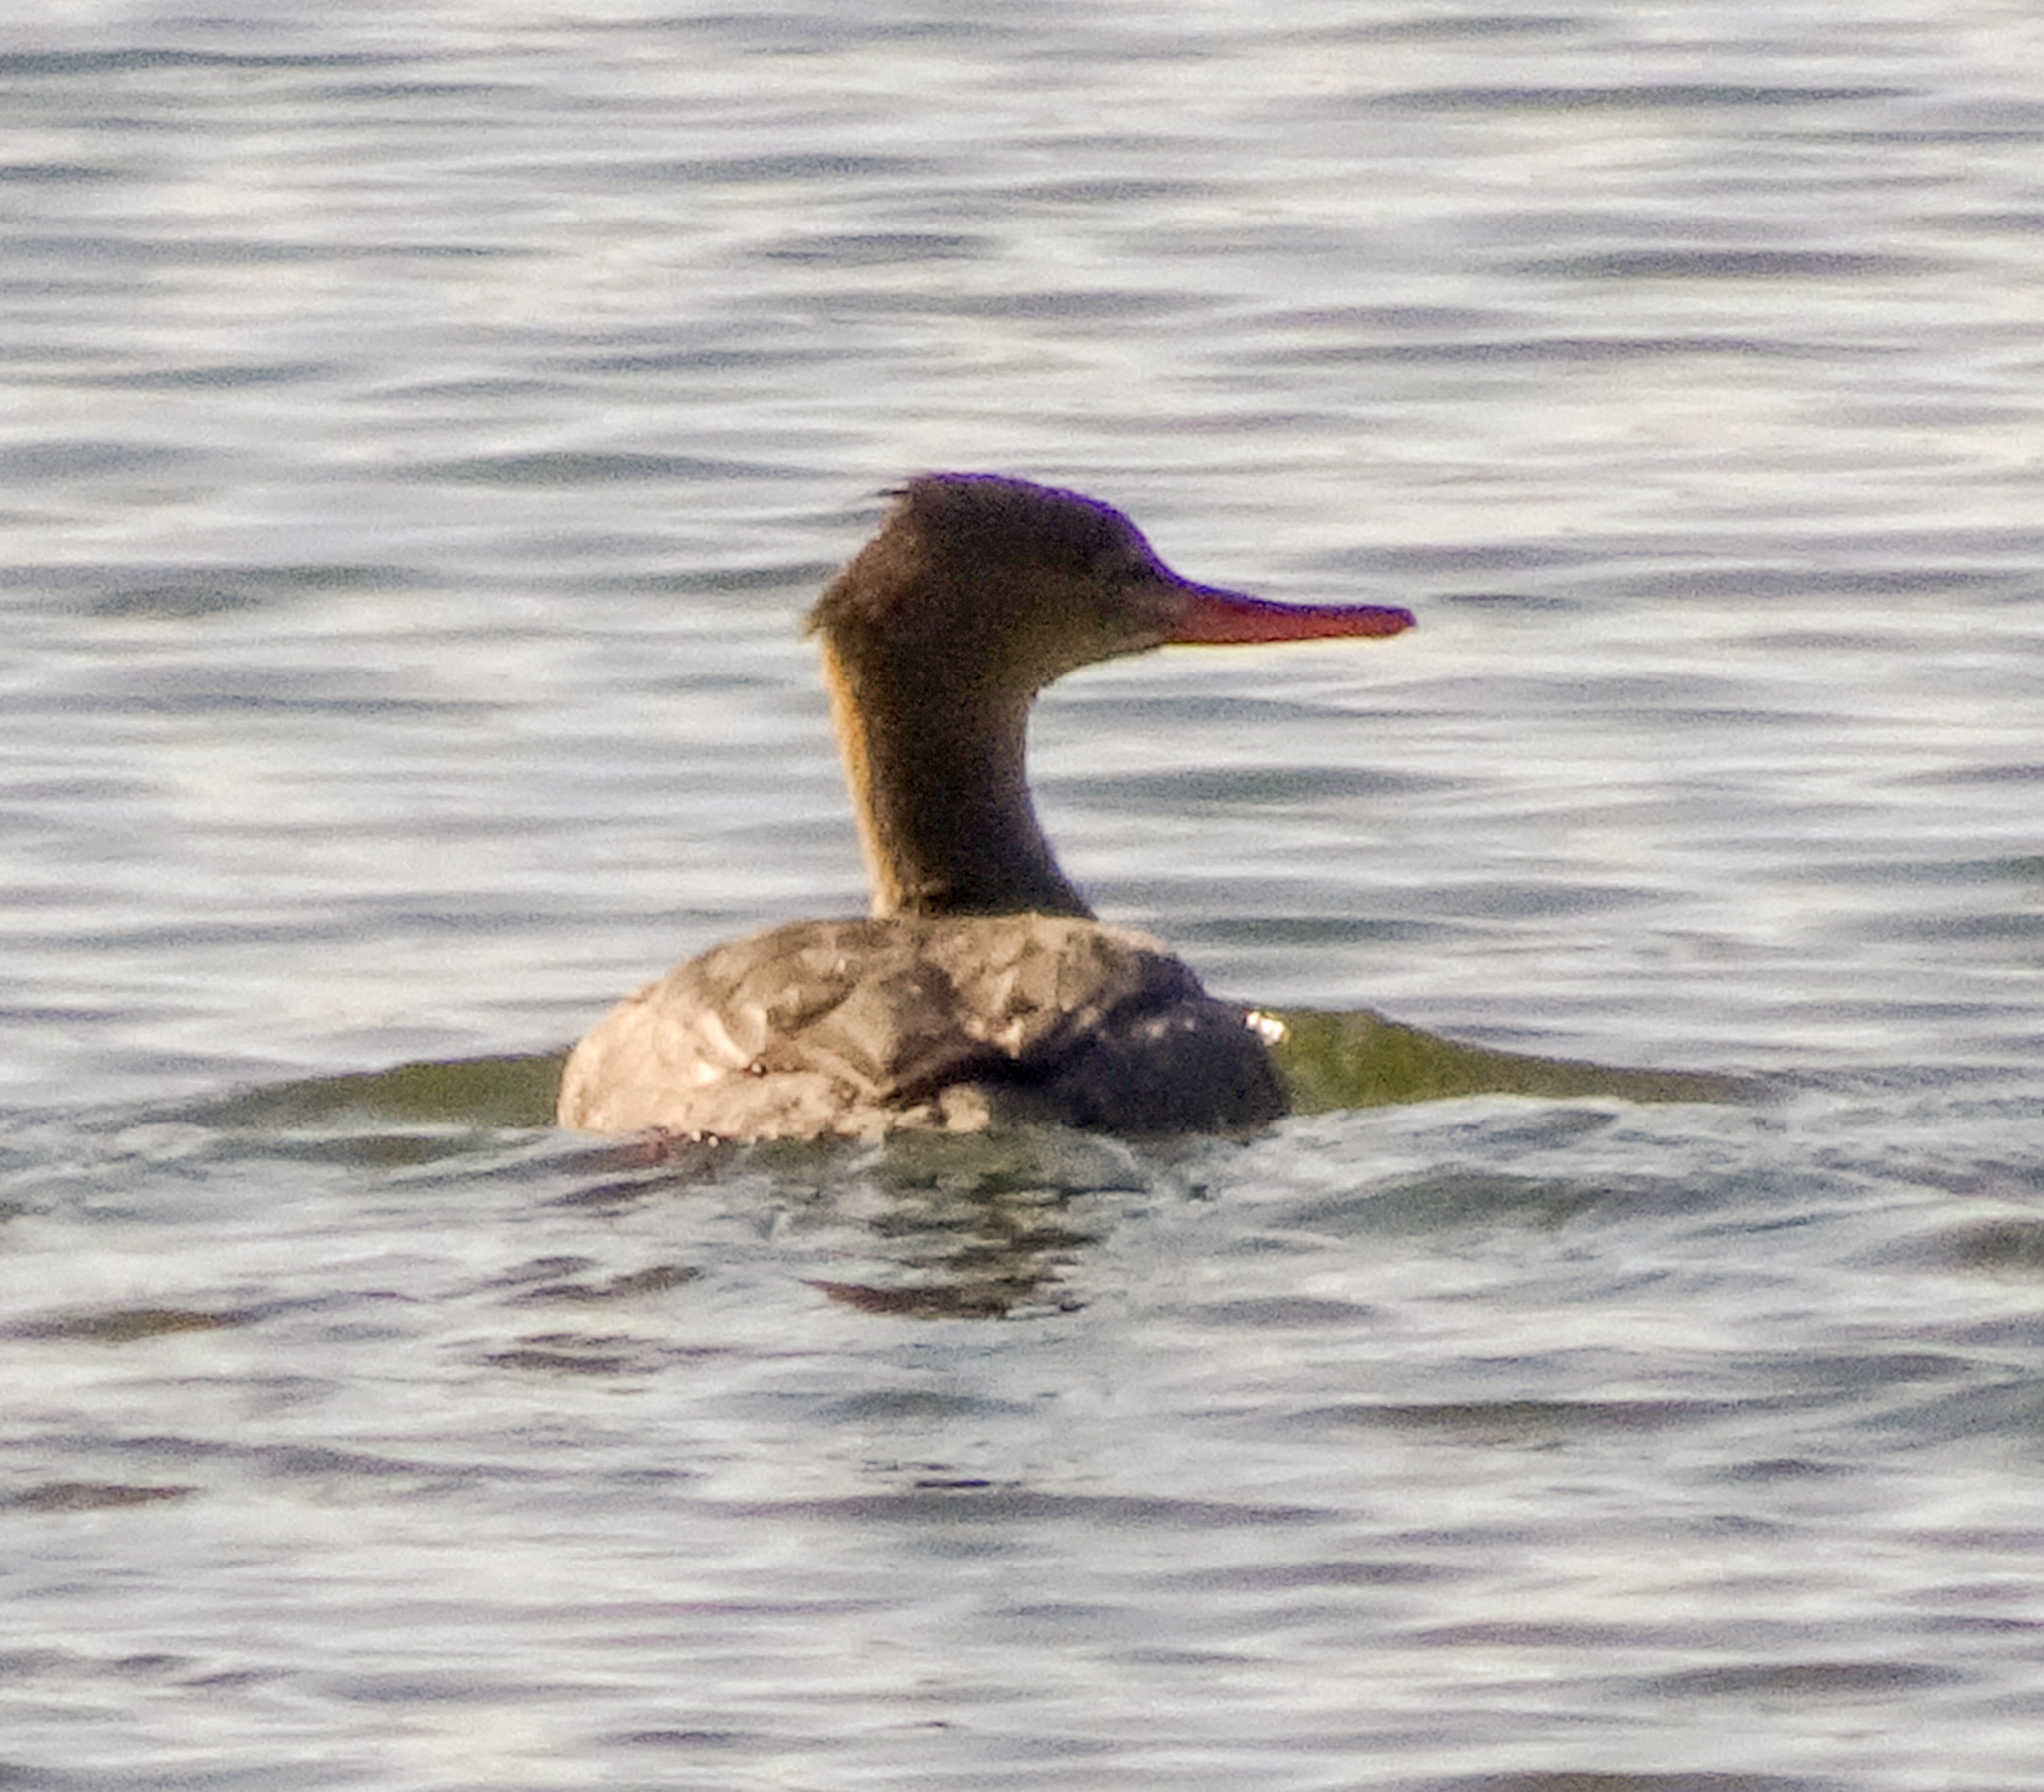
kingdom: Animalia
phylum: Chordata
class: Aves
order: Anseriformes
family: Anatidae
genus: Mergus
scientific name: Mergus serrator
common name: Red-breasted merganser
